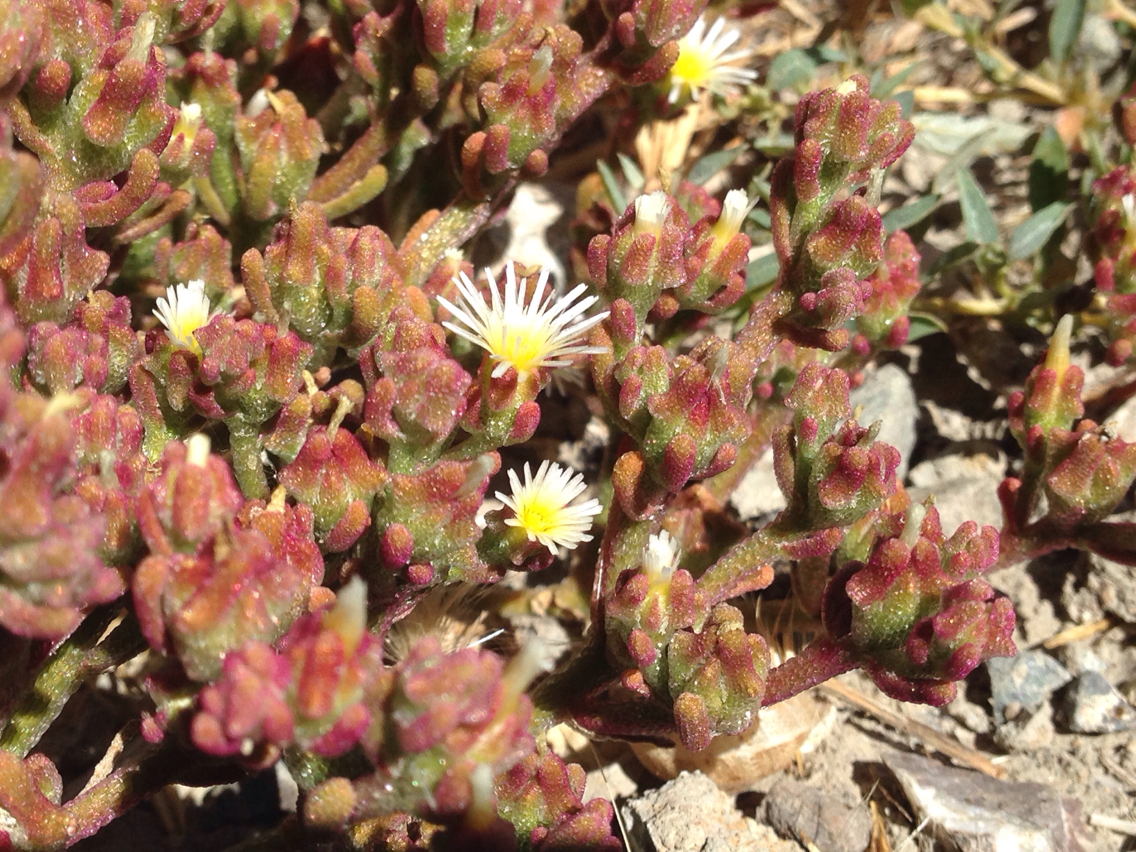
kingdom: Plantae
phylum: Tracheophyta
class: Magnoliopsida
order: Caryophyllales
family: Aizoaceae
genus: Mesembryanthemum
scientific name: Mesembryanthemum nodiflorum
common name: Slenderleaf iceplant
